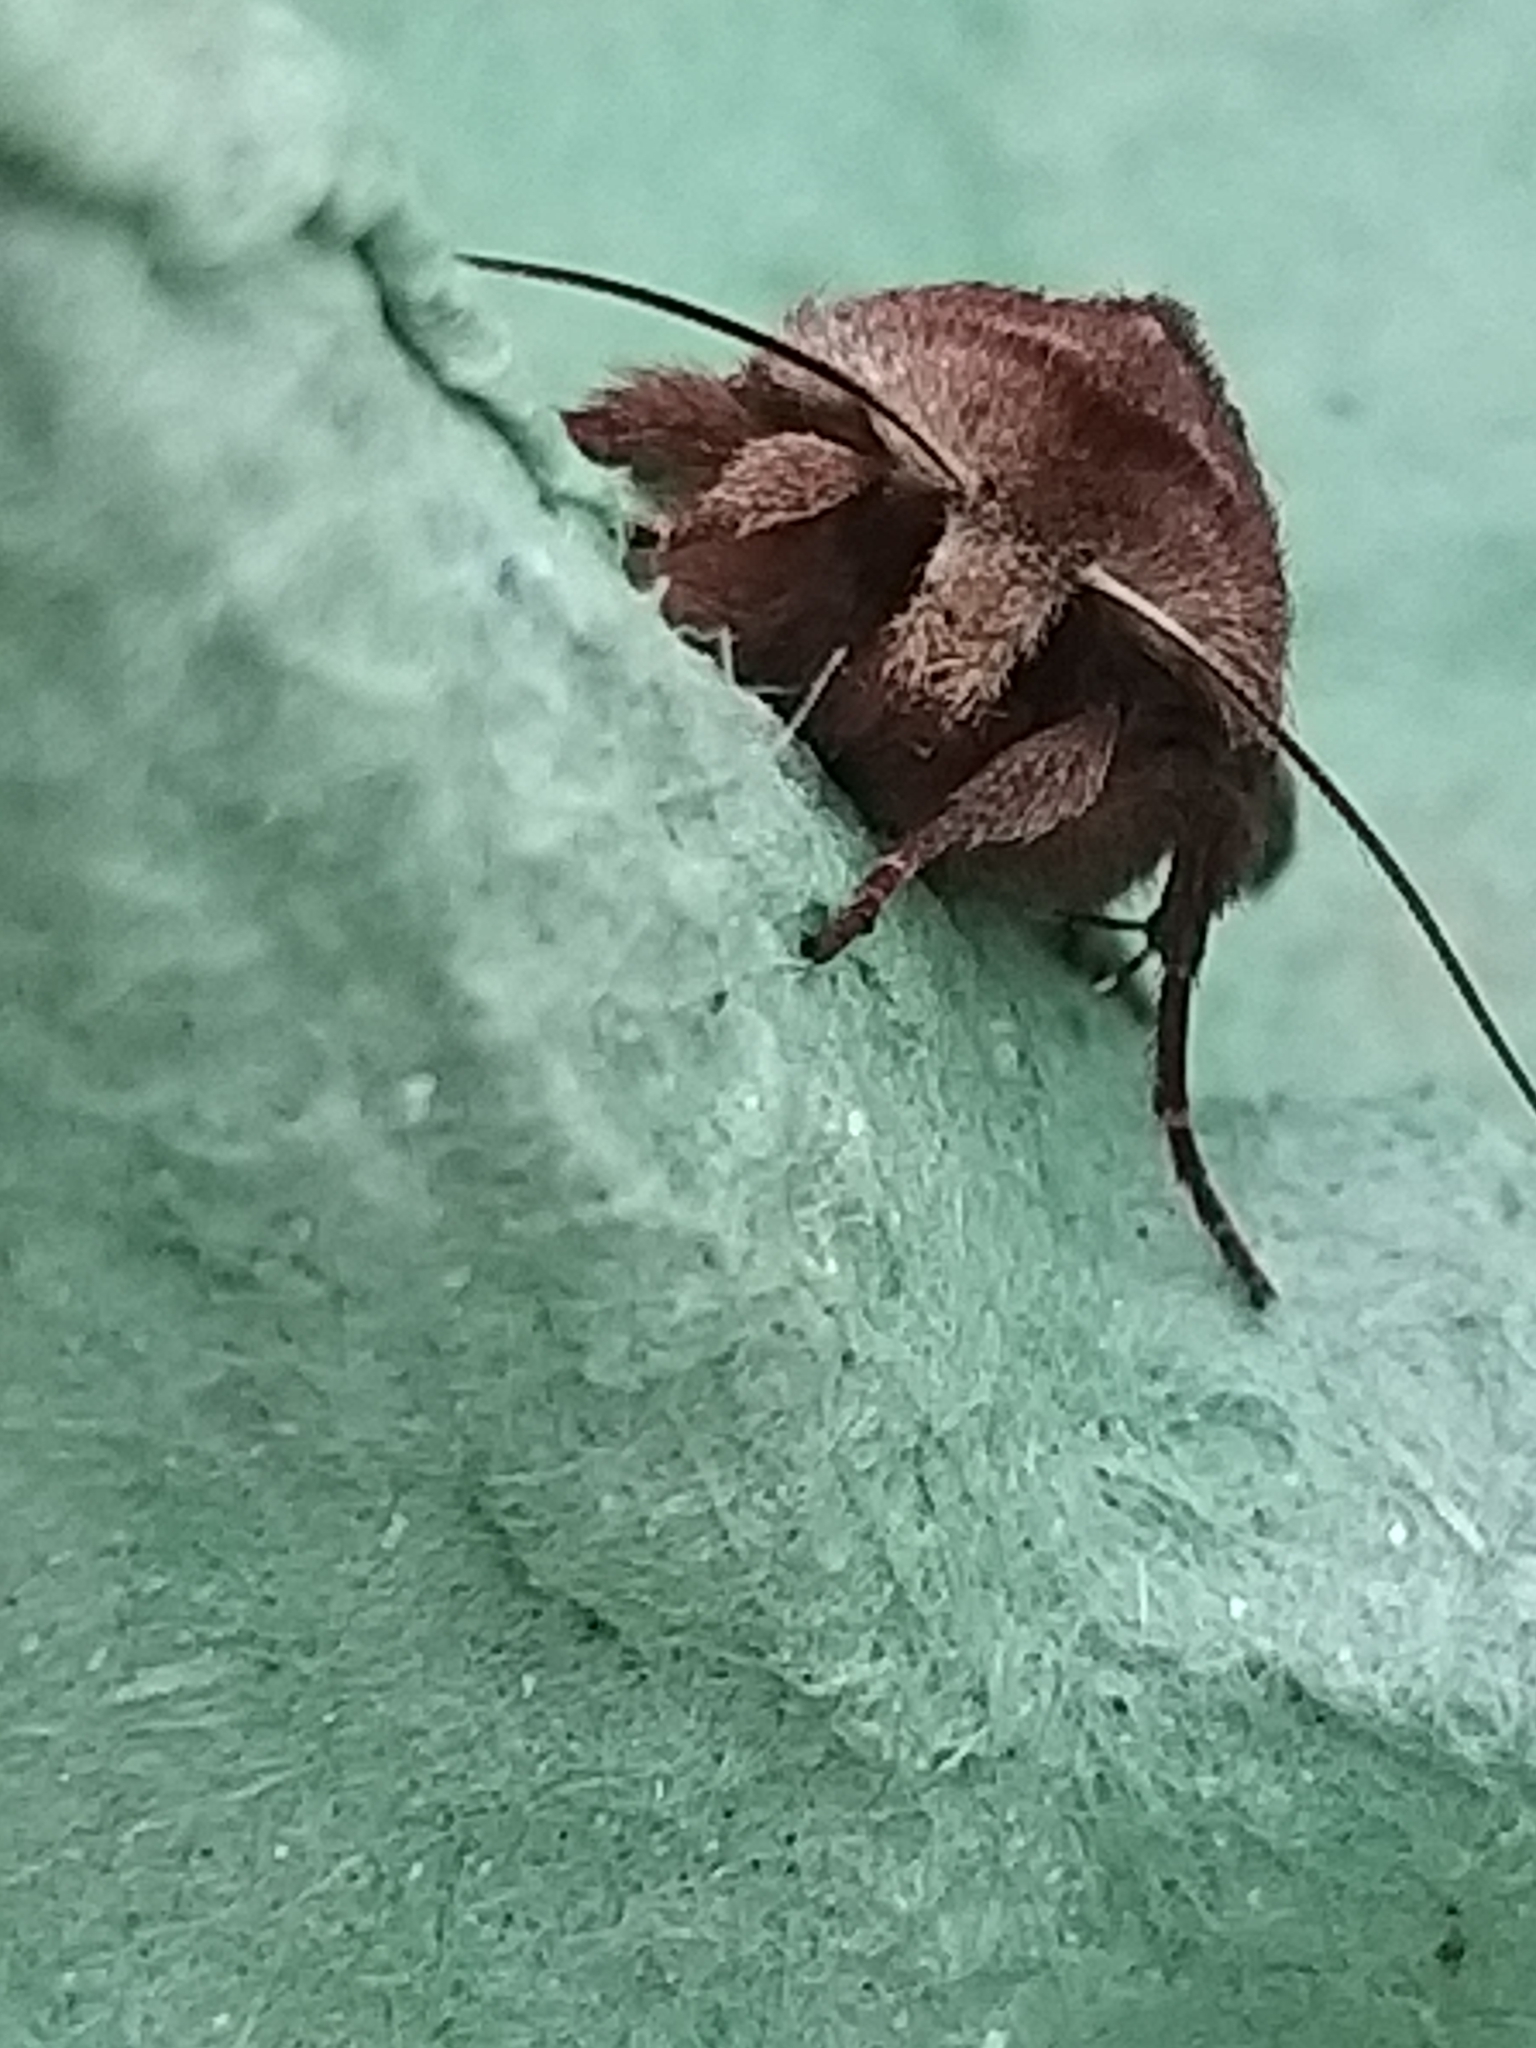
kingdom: Animalia
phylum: Arthropoda
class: Insecta
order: Lepidoptera
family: Noctuidae
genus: Cerastis
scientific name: Cerastis rubricosa
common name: Red chestnut
